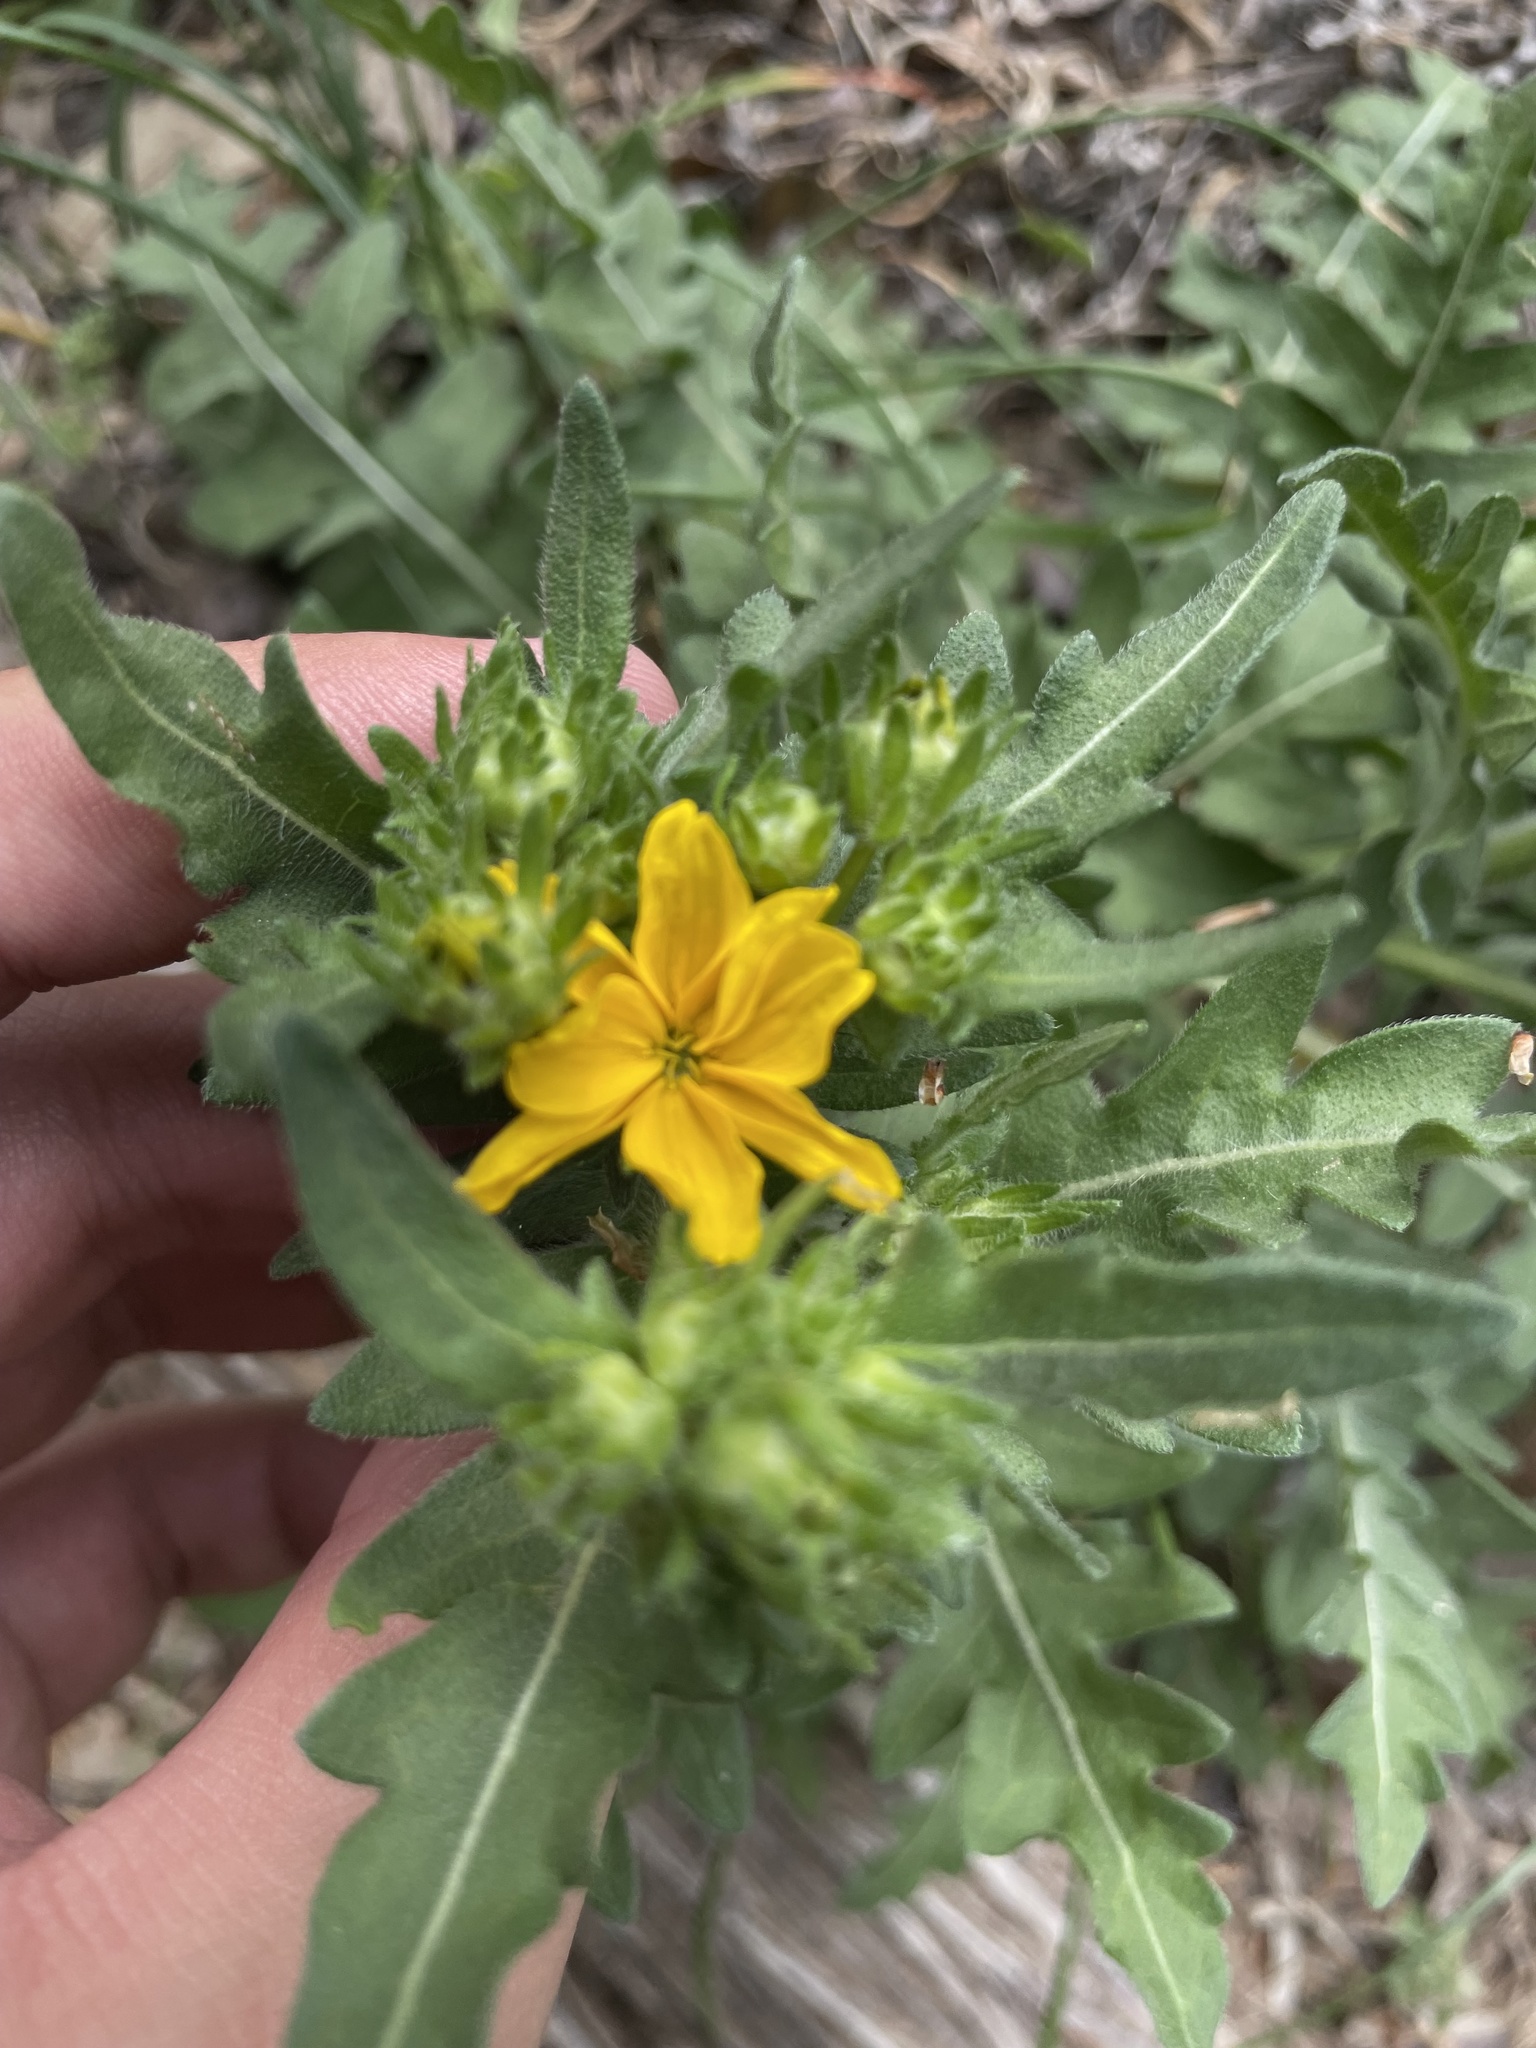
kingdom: Plantae
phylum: Tracheophyta
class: Magnoliopsida
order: Asterales
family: Asteraceae
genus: Engelmannia
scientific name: Engelmannia peristenia
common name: Engelmann's daisy
